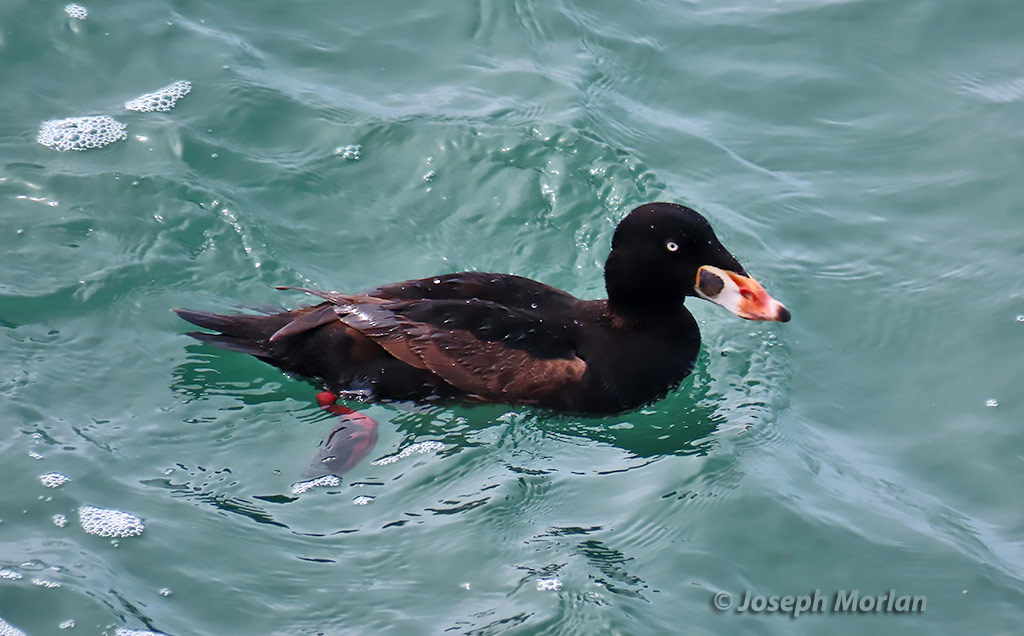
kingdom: Animalia
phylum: Chordata
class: Aves
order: Anseriformes
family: Anatidae
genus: Melanitta
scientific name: Melanitta perspicillata
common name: Surf scoter
